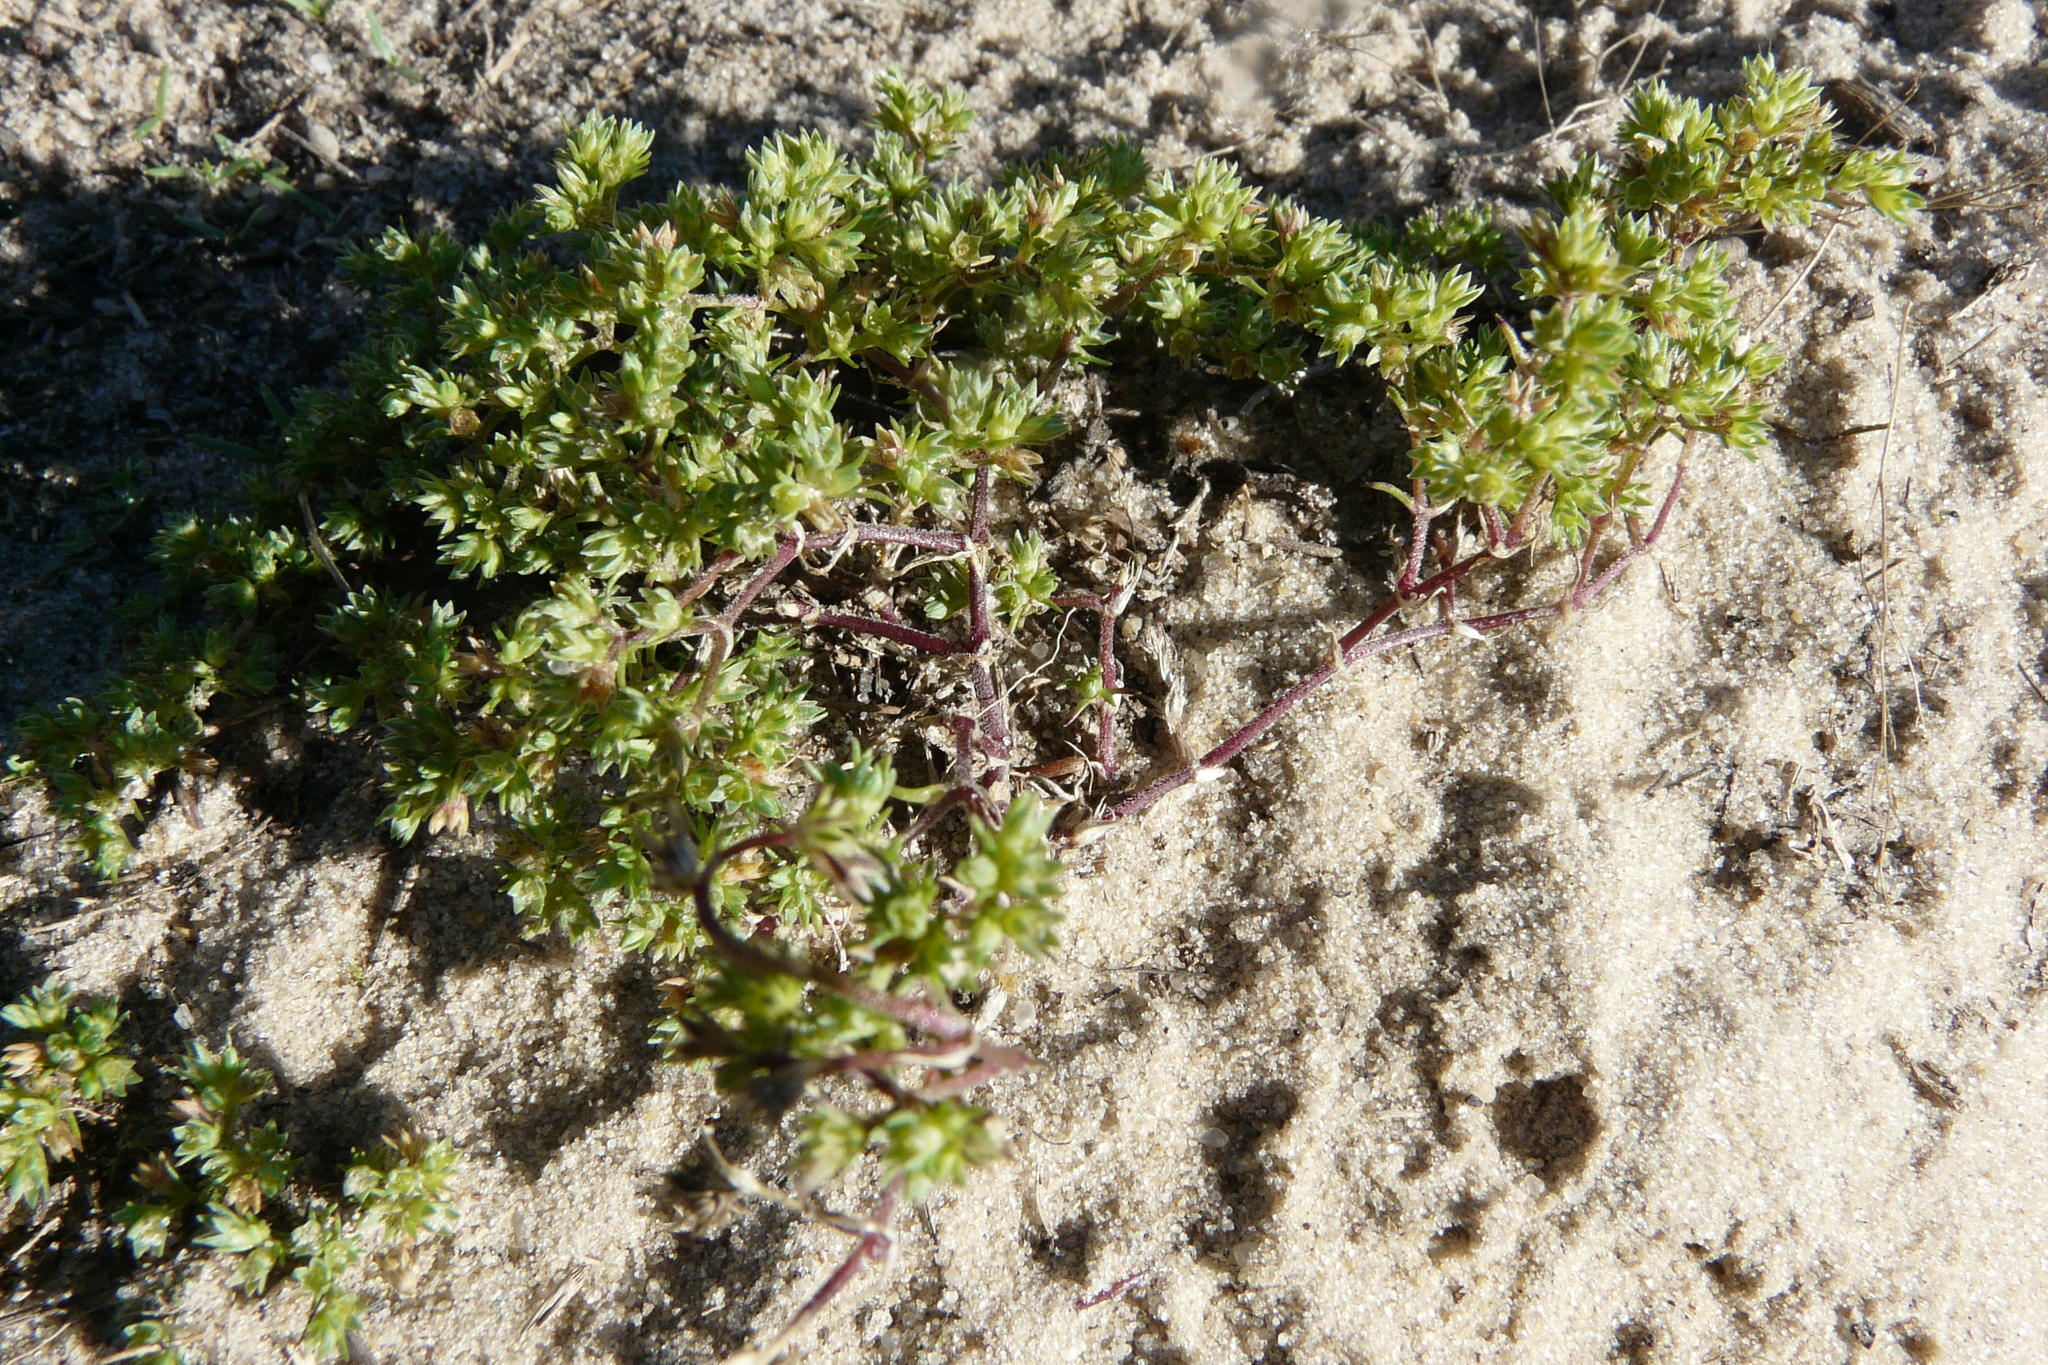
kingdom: Plantae
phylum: Tracheophyta
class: Magnoliopsida
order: Caryophyllales
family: Caryophyllaceae
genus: Scleranthus
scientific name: Scleranthus annuus
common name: Annual knawel
